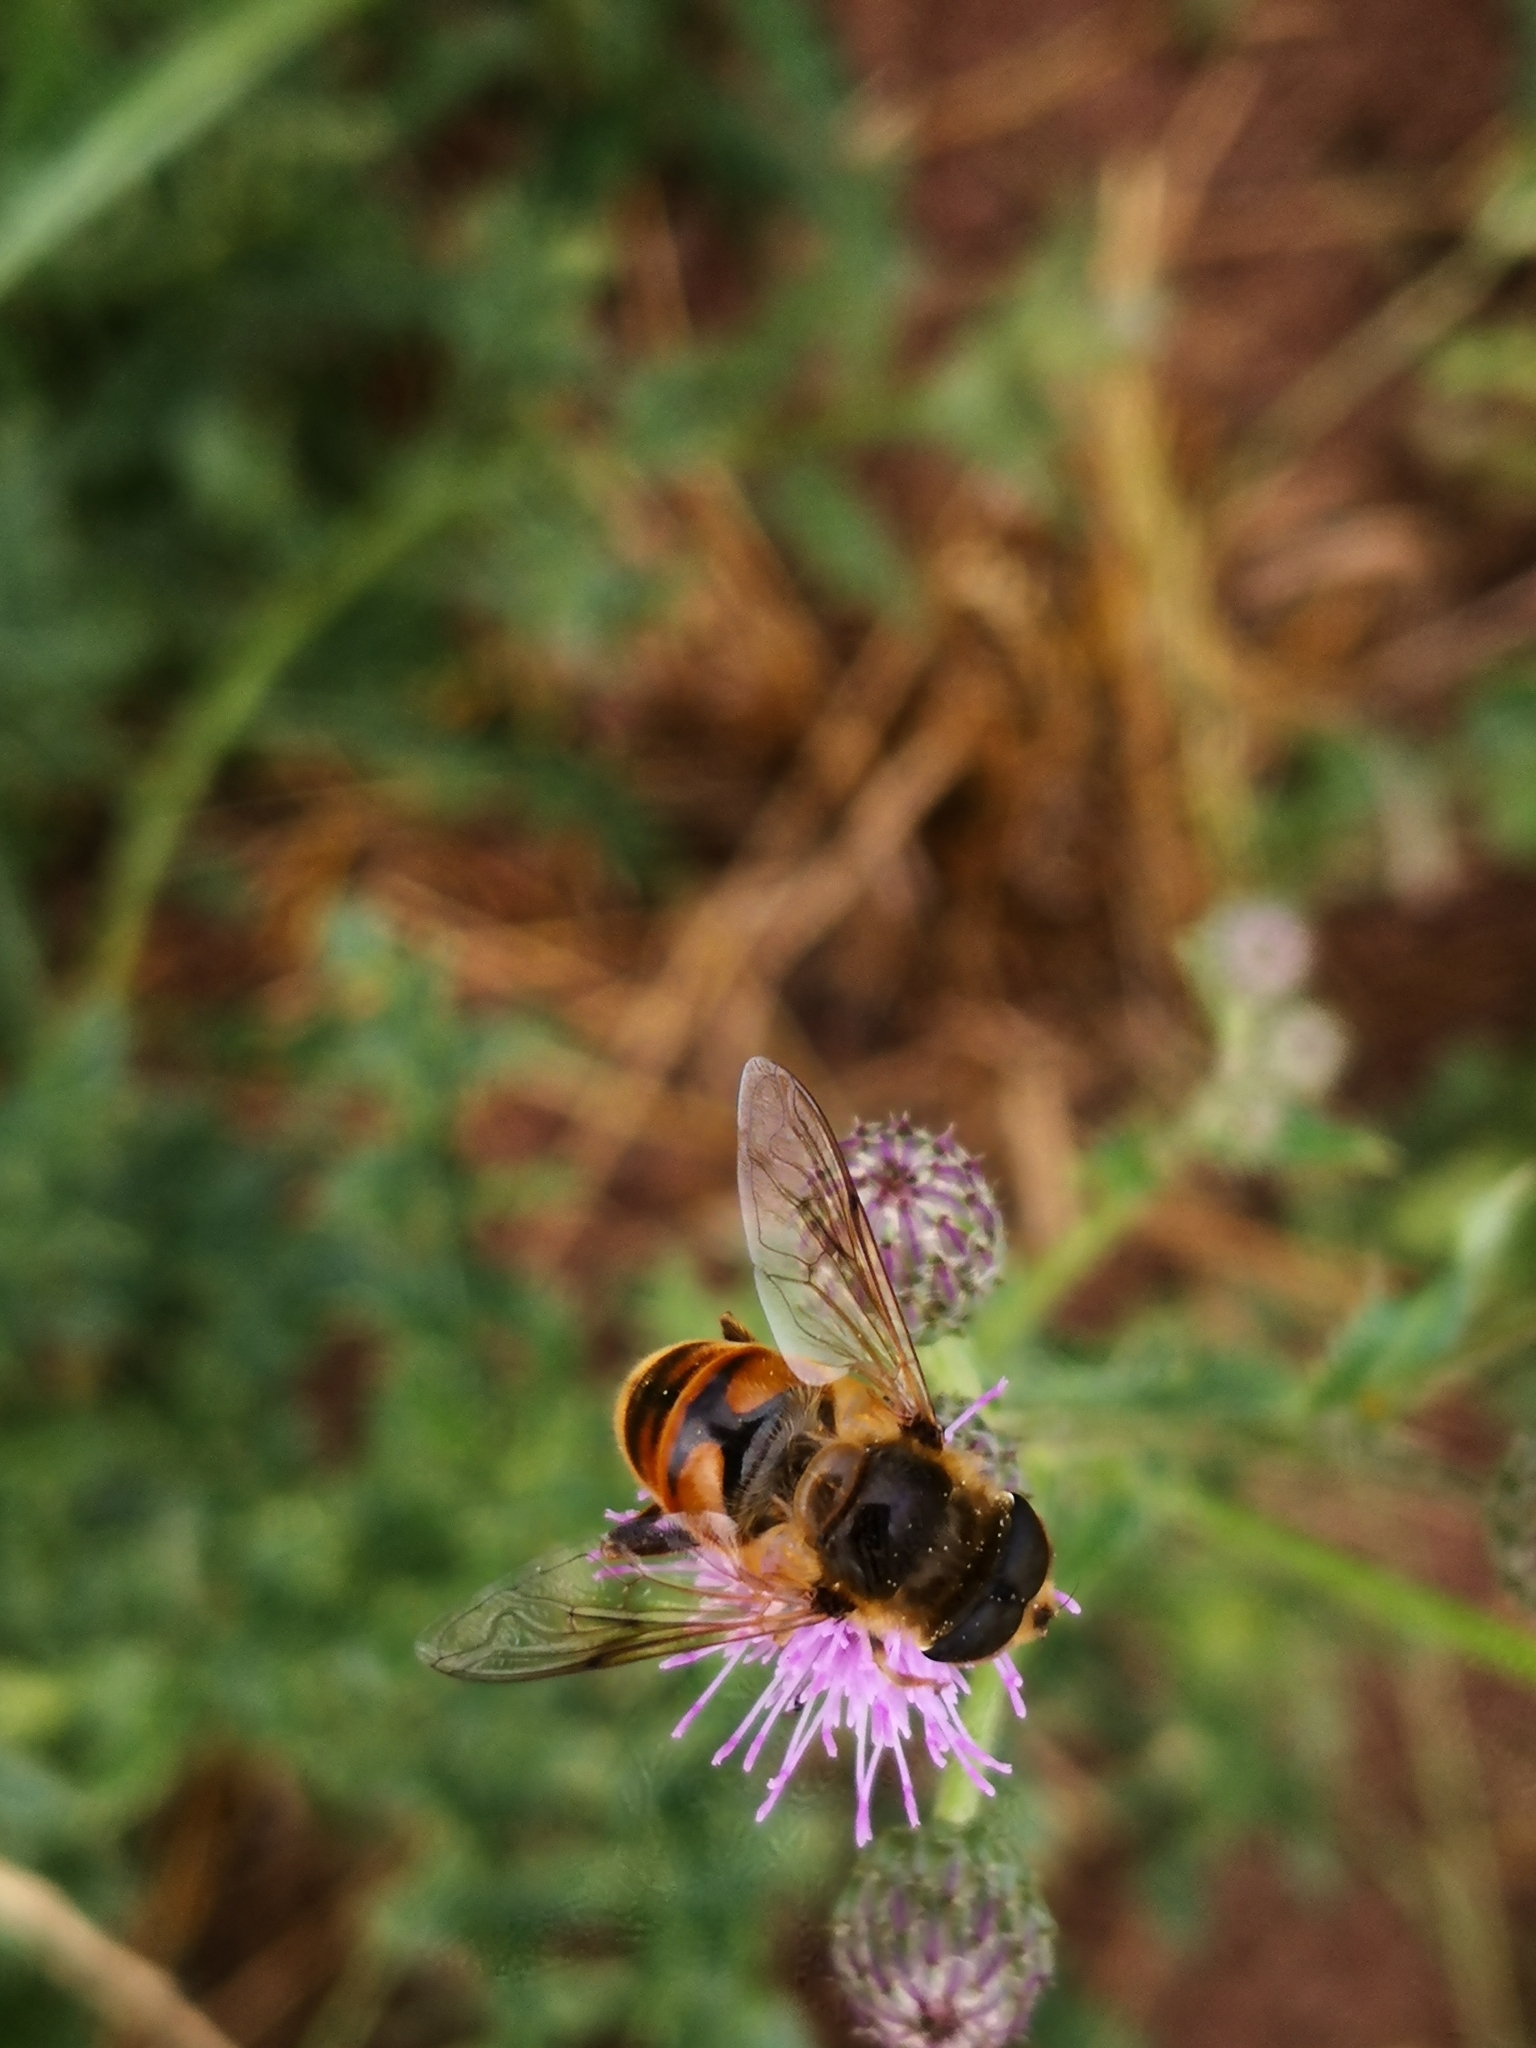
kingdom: Animalia
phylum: Arthropoda
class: Insecta
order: Diptera
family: Syrphidae
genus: Eristalis
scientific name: Eristalis tenax
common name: Drone fly
